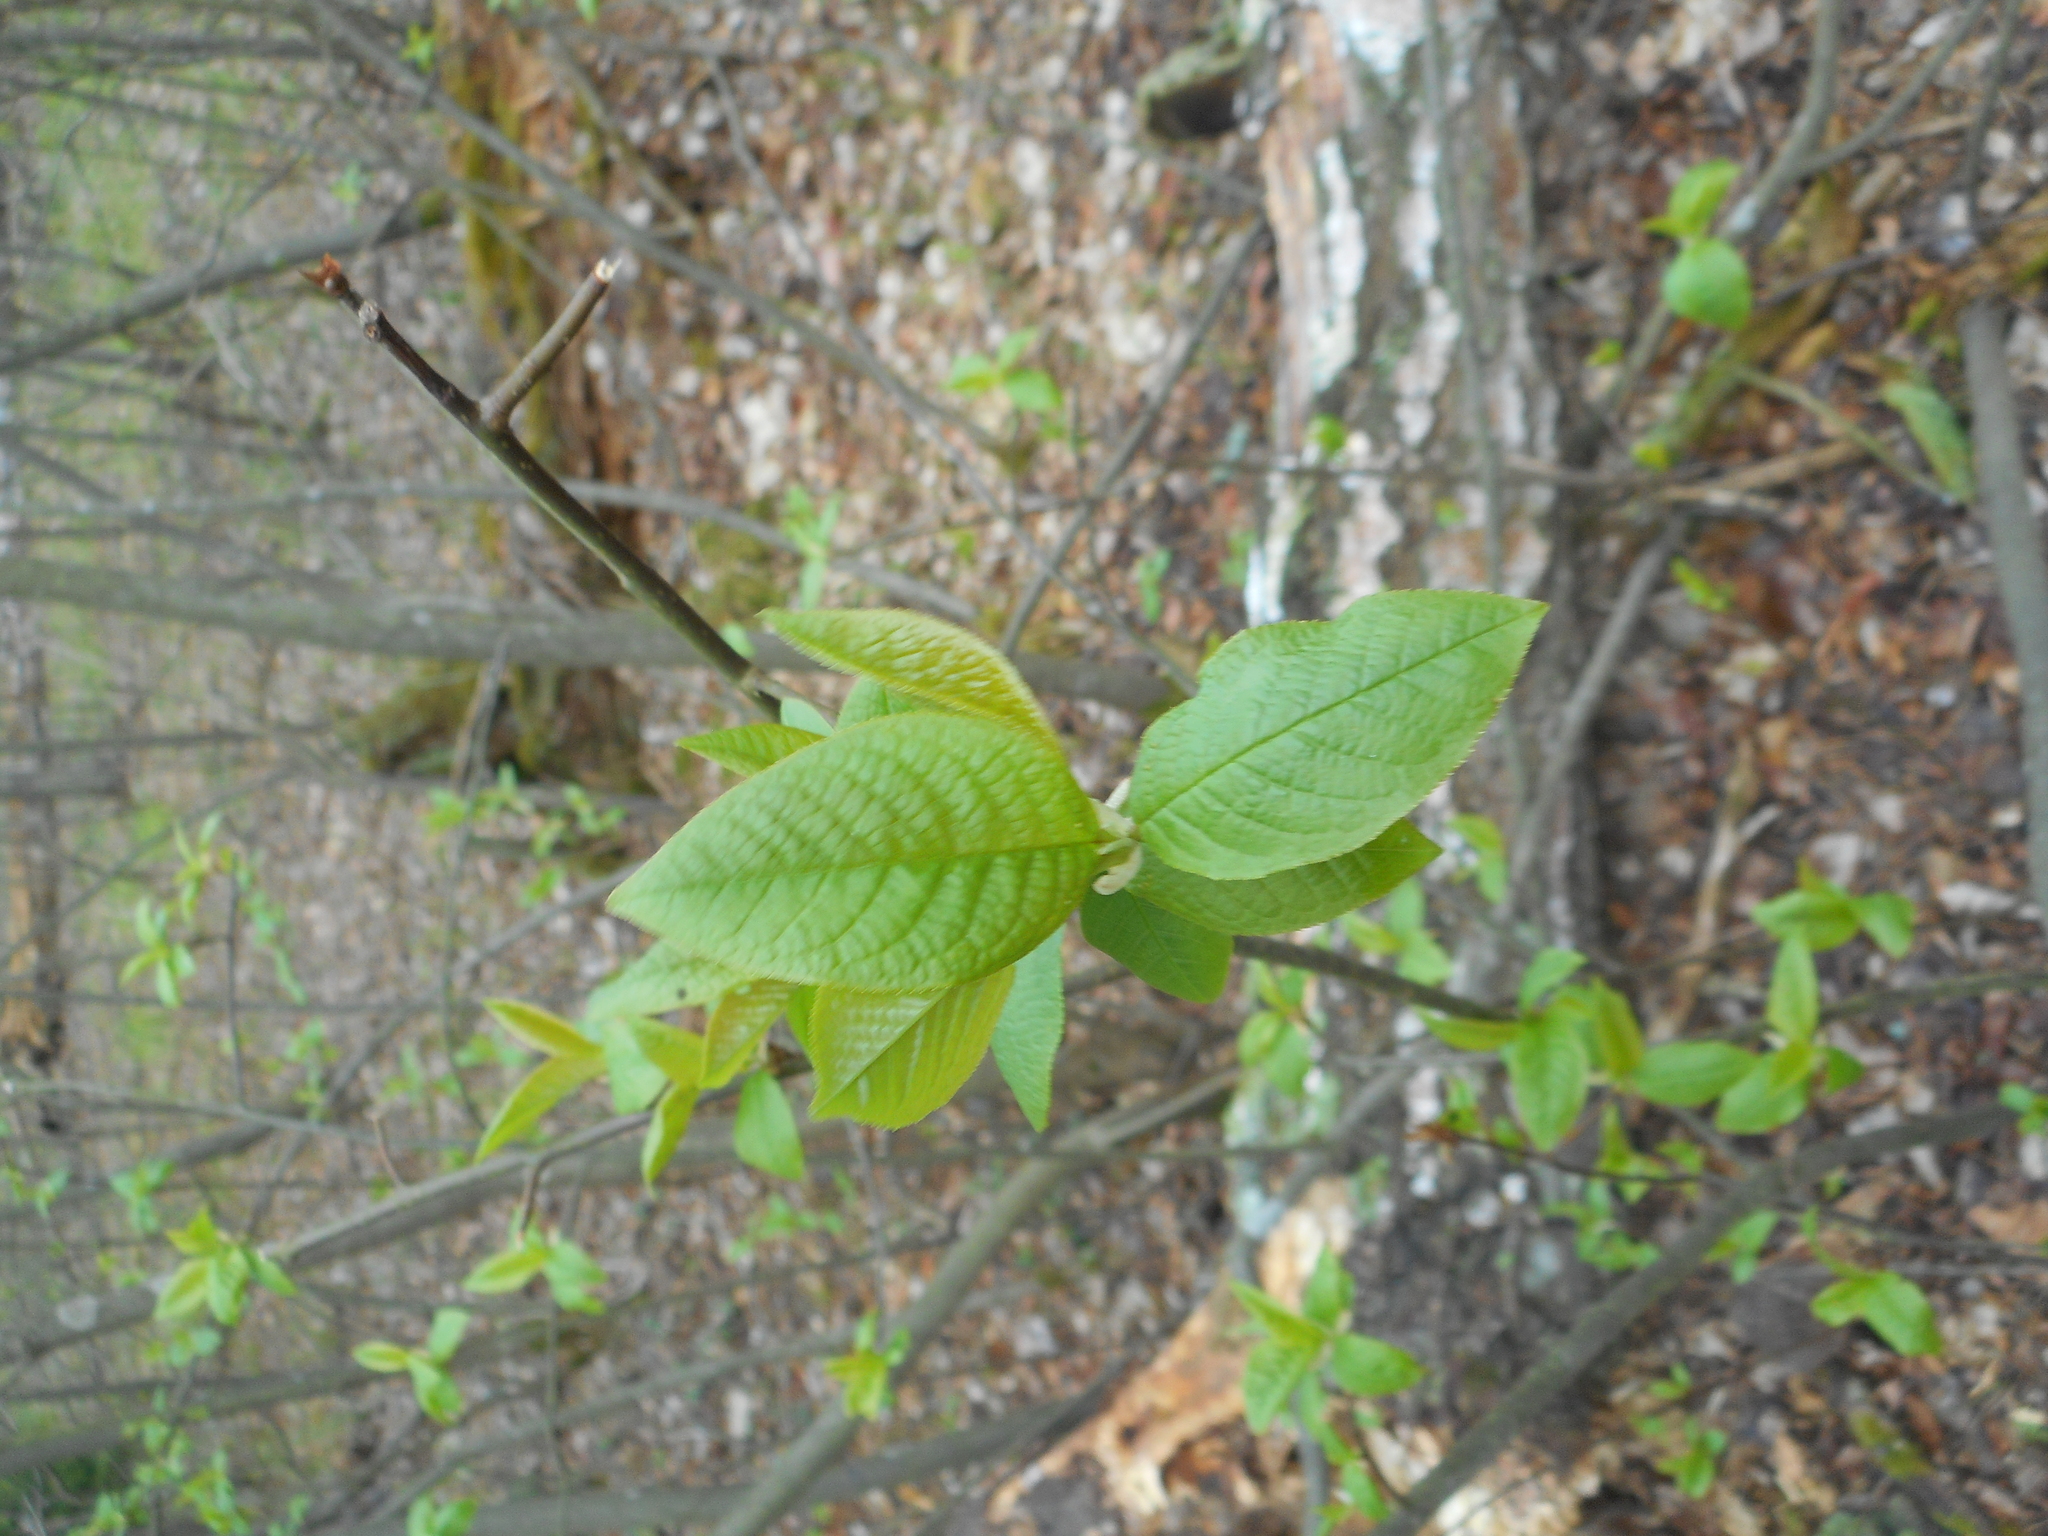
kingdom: Plantae
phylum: Tracheophyta
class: Magnoliopsida
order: Rosales
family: Rosaceae
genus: Prunus
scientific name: Prunus padus
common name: Bird cherry
